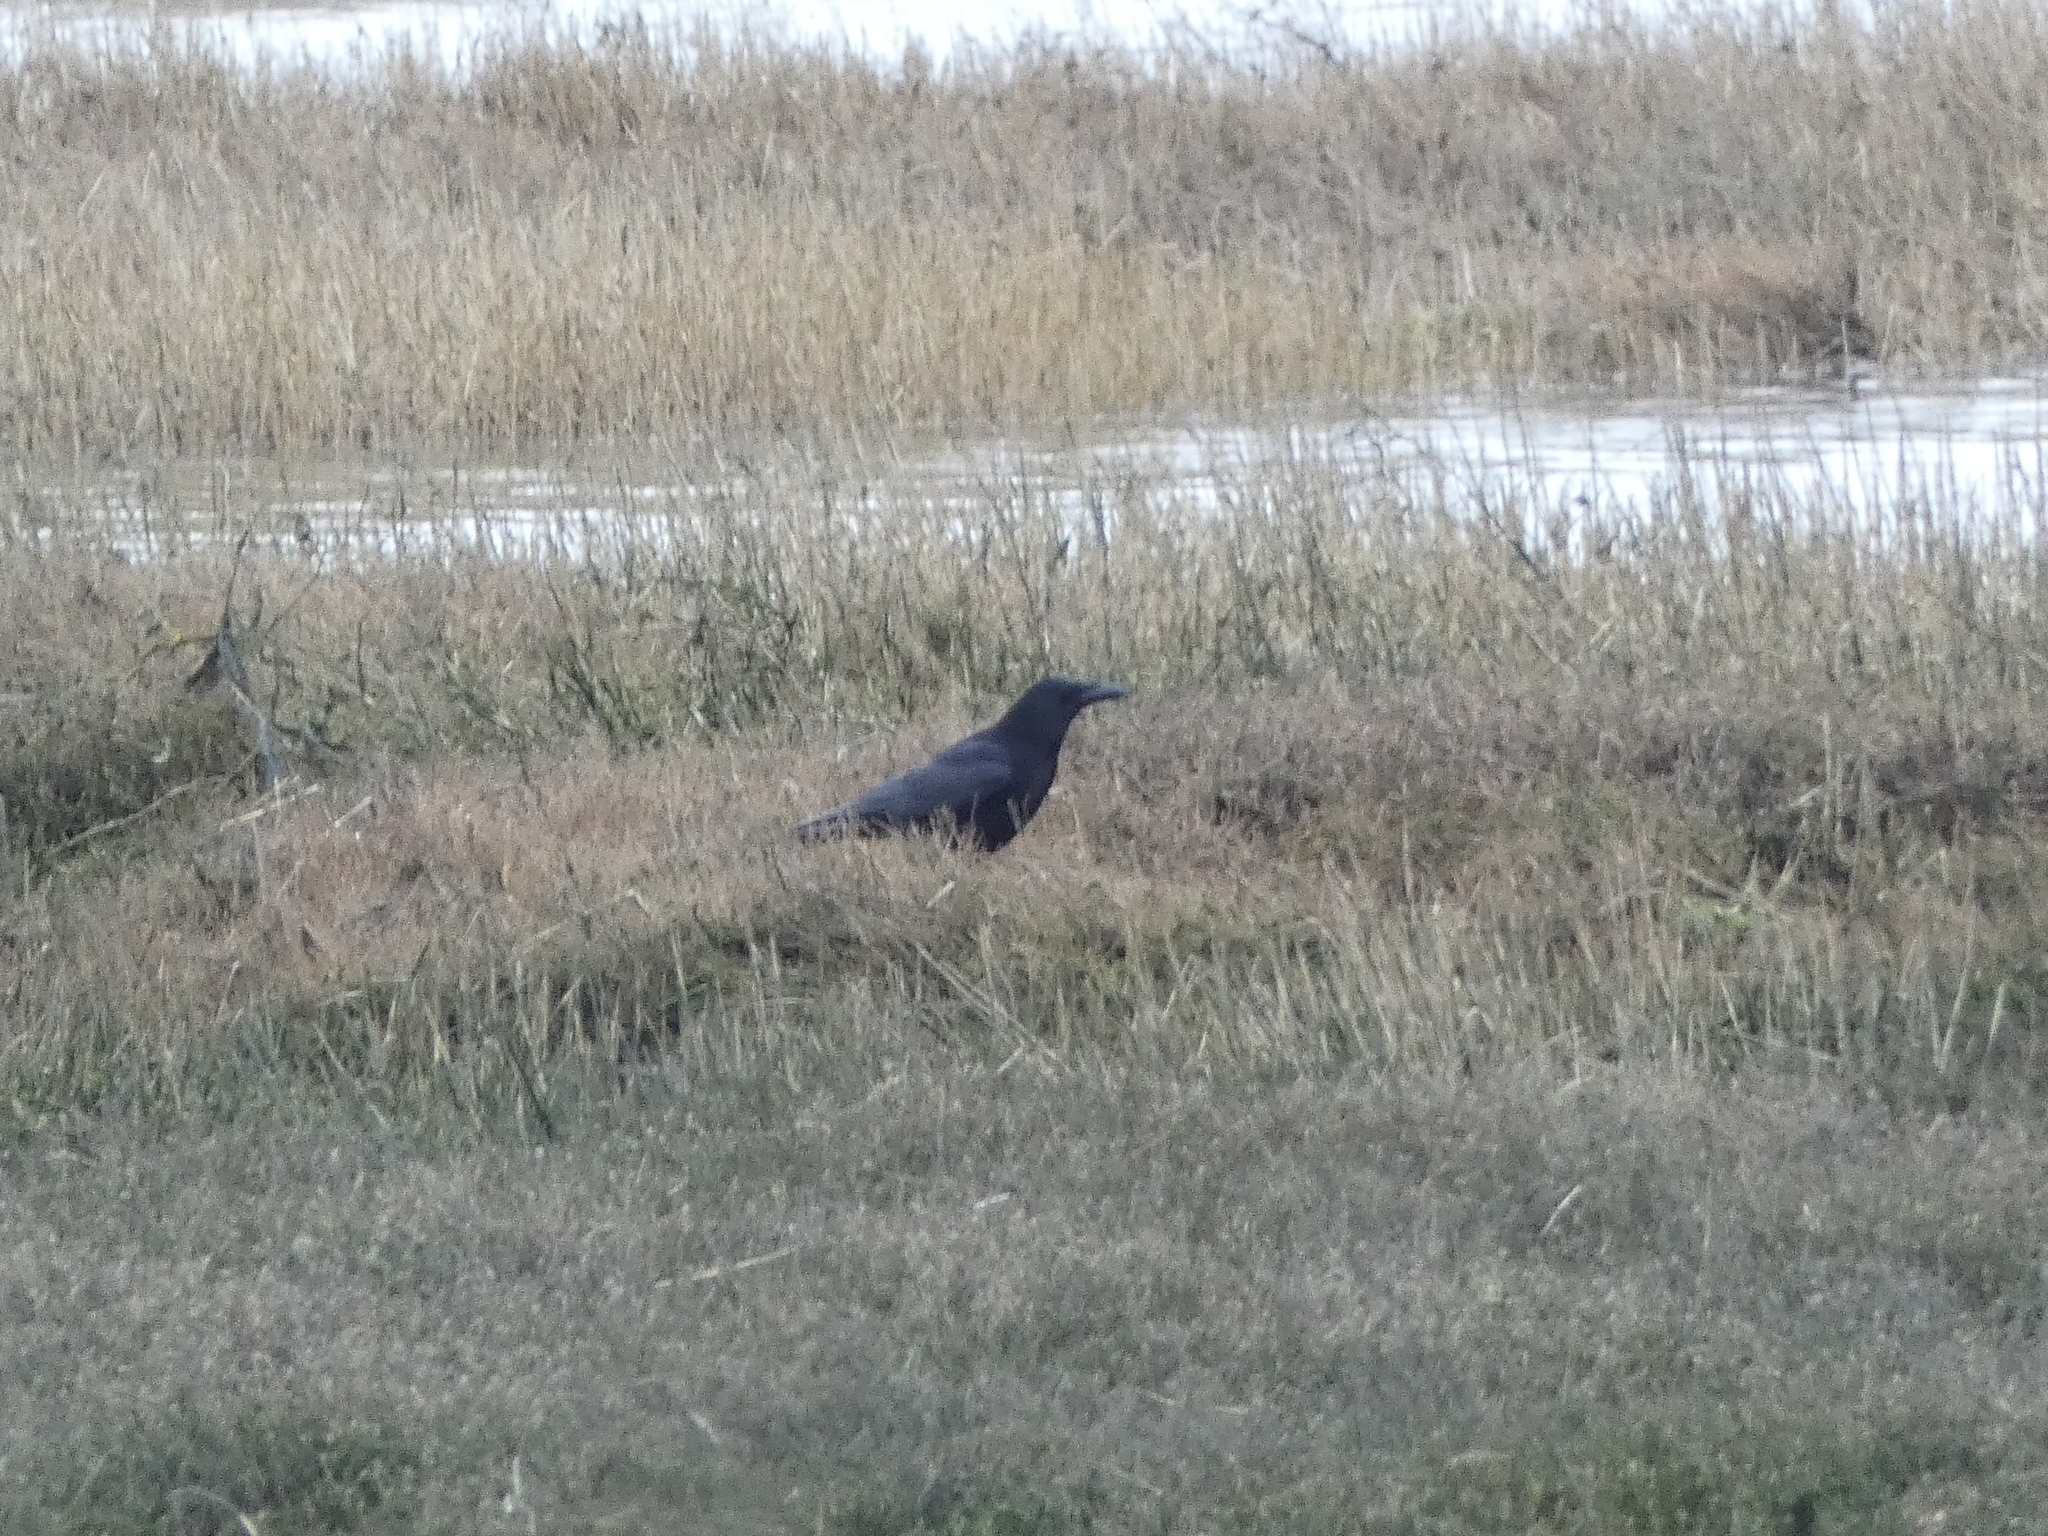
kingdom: Animalia
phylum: Chordata
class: Aves
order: Passeriformes
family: Corvidae
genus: Corvus
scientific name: Corvus corone
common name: Carrion crow
